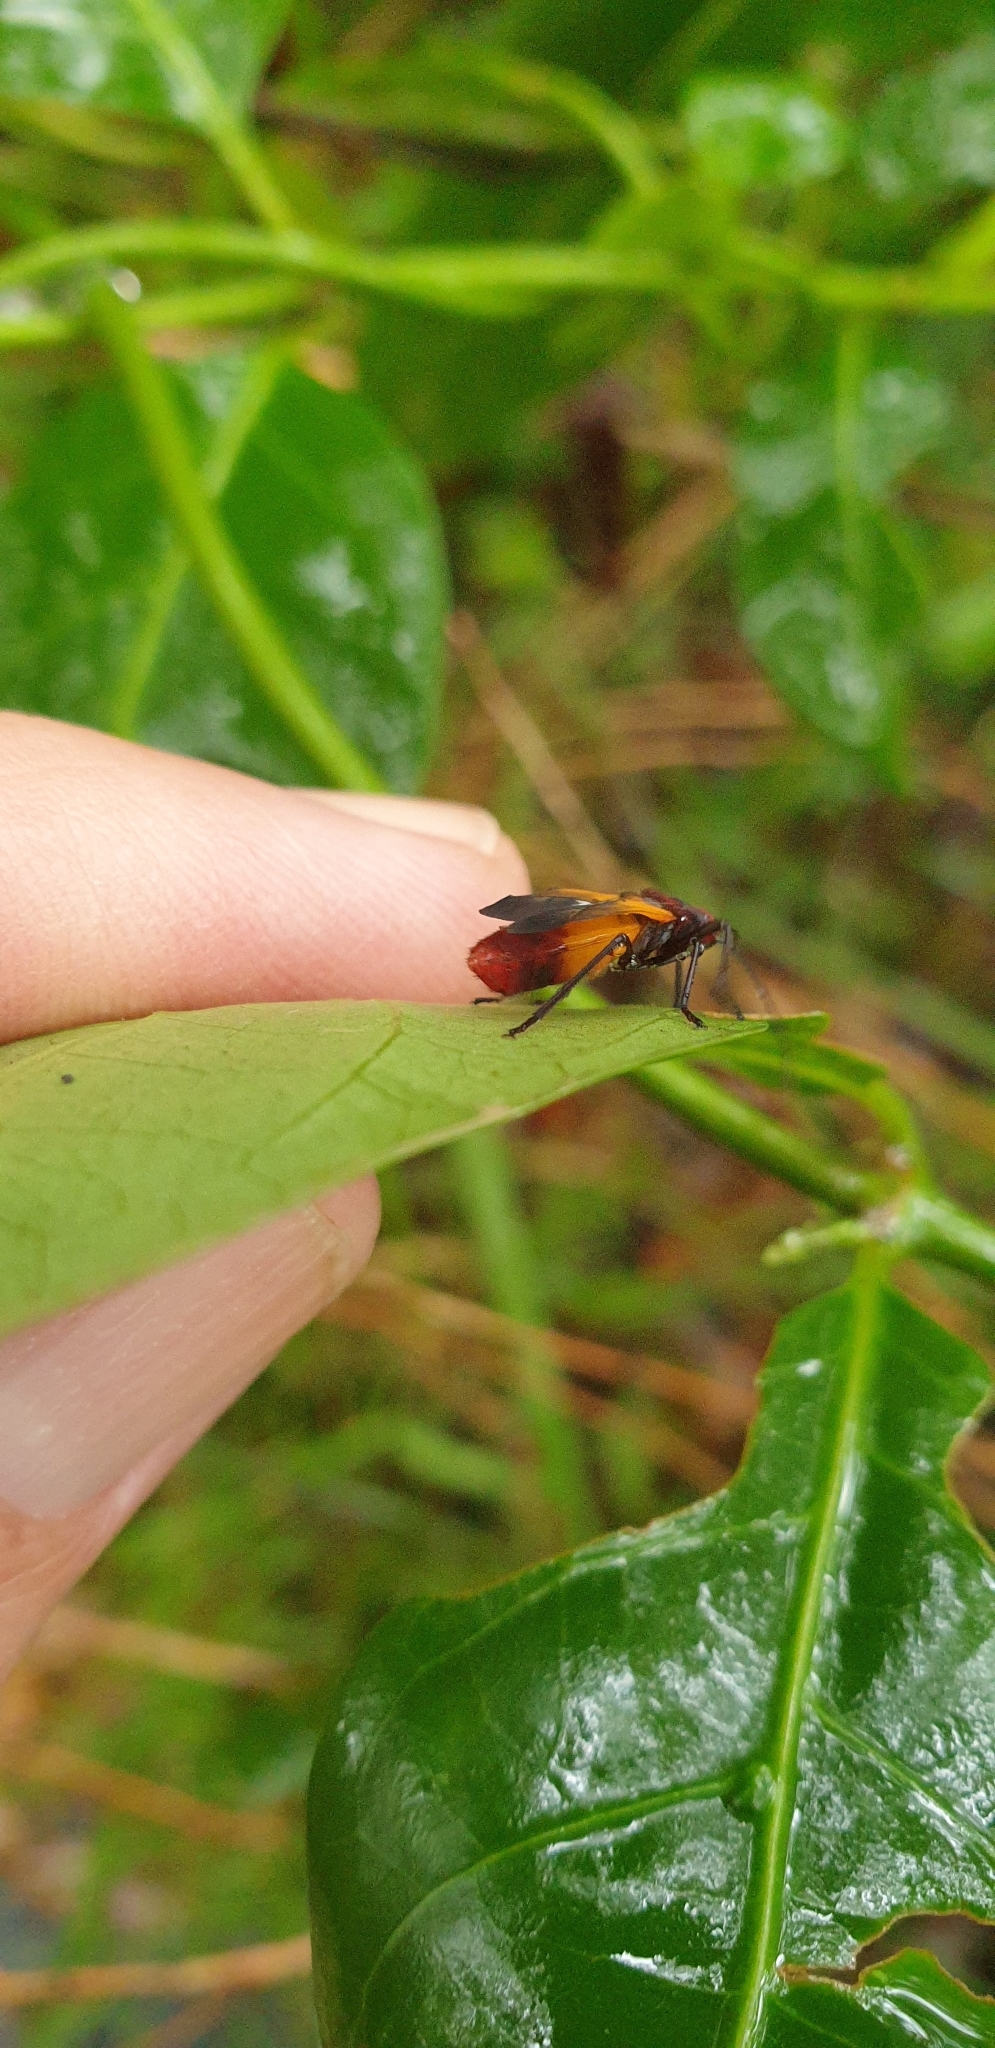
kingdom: Animalia
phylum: Arthropoda
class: Insecta
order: Hemiptera
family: Lygaeidae
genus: Oncopeltus
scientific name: Oncopeltus sordidus
